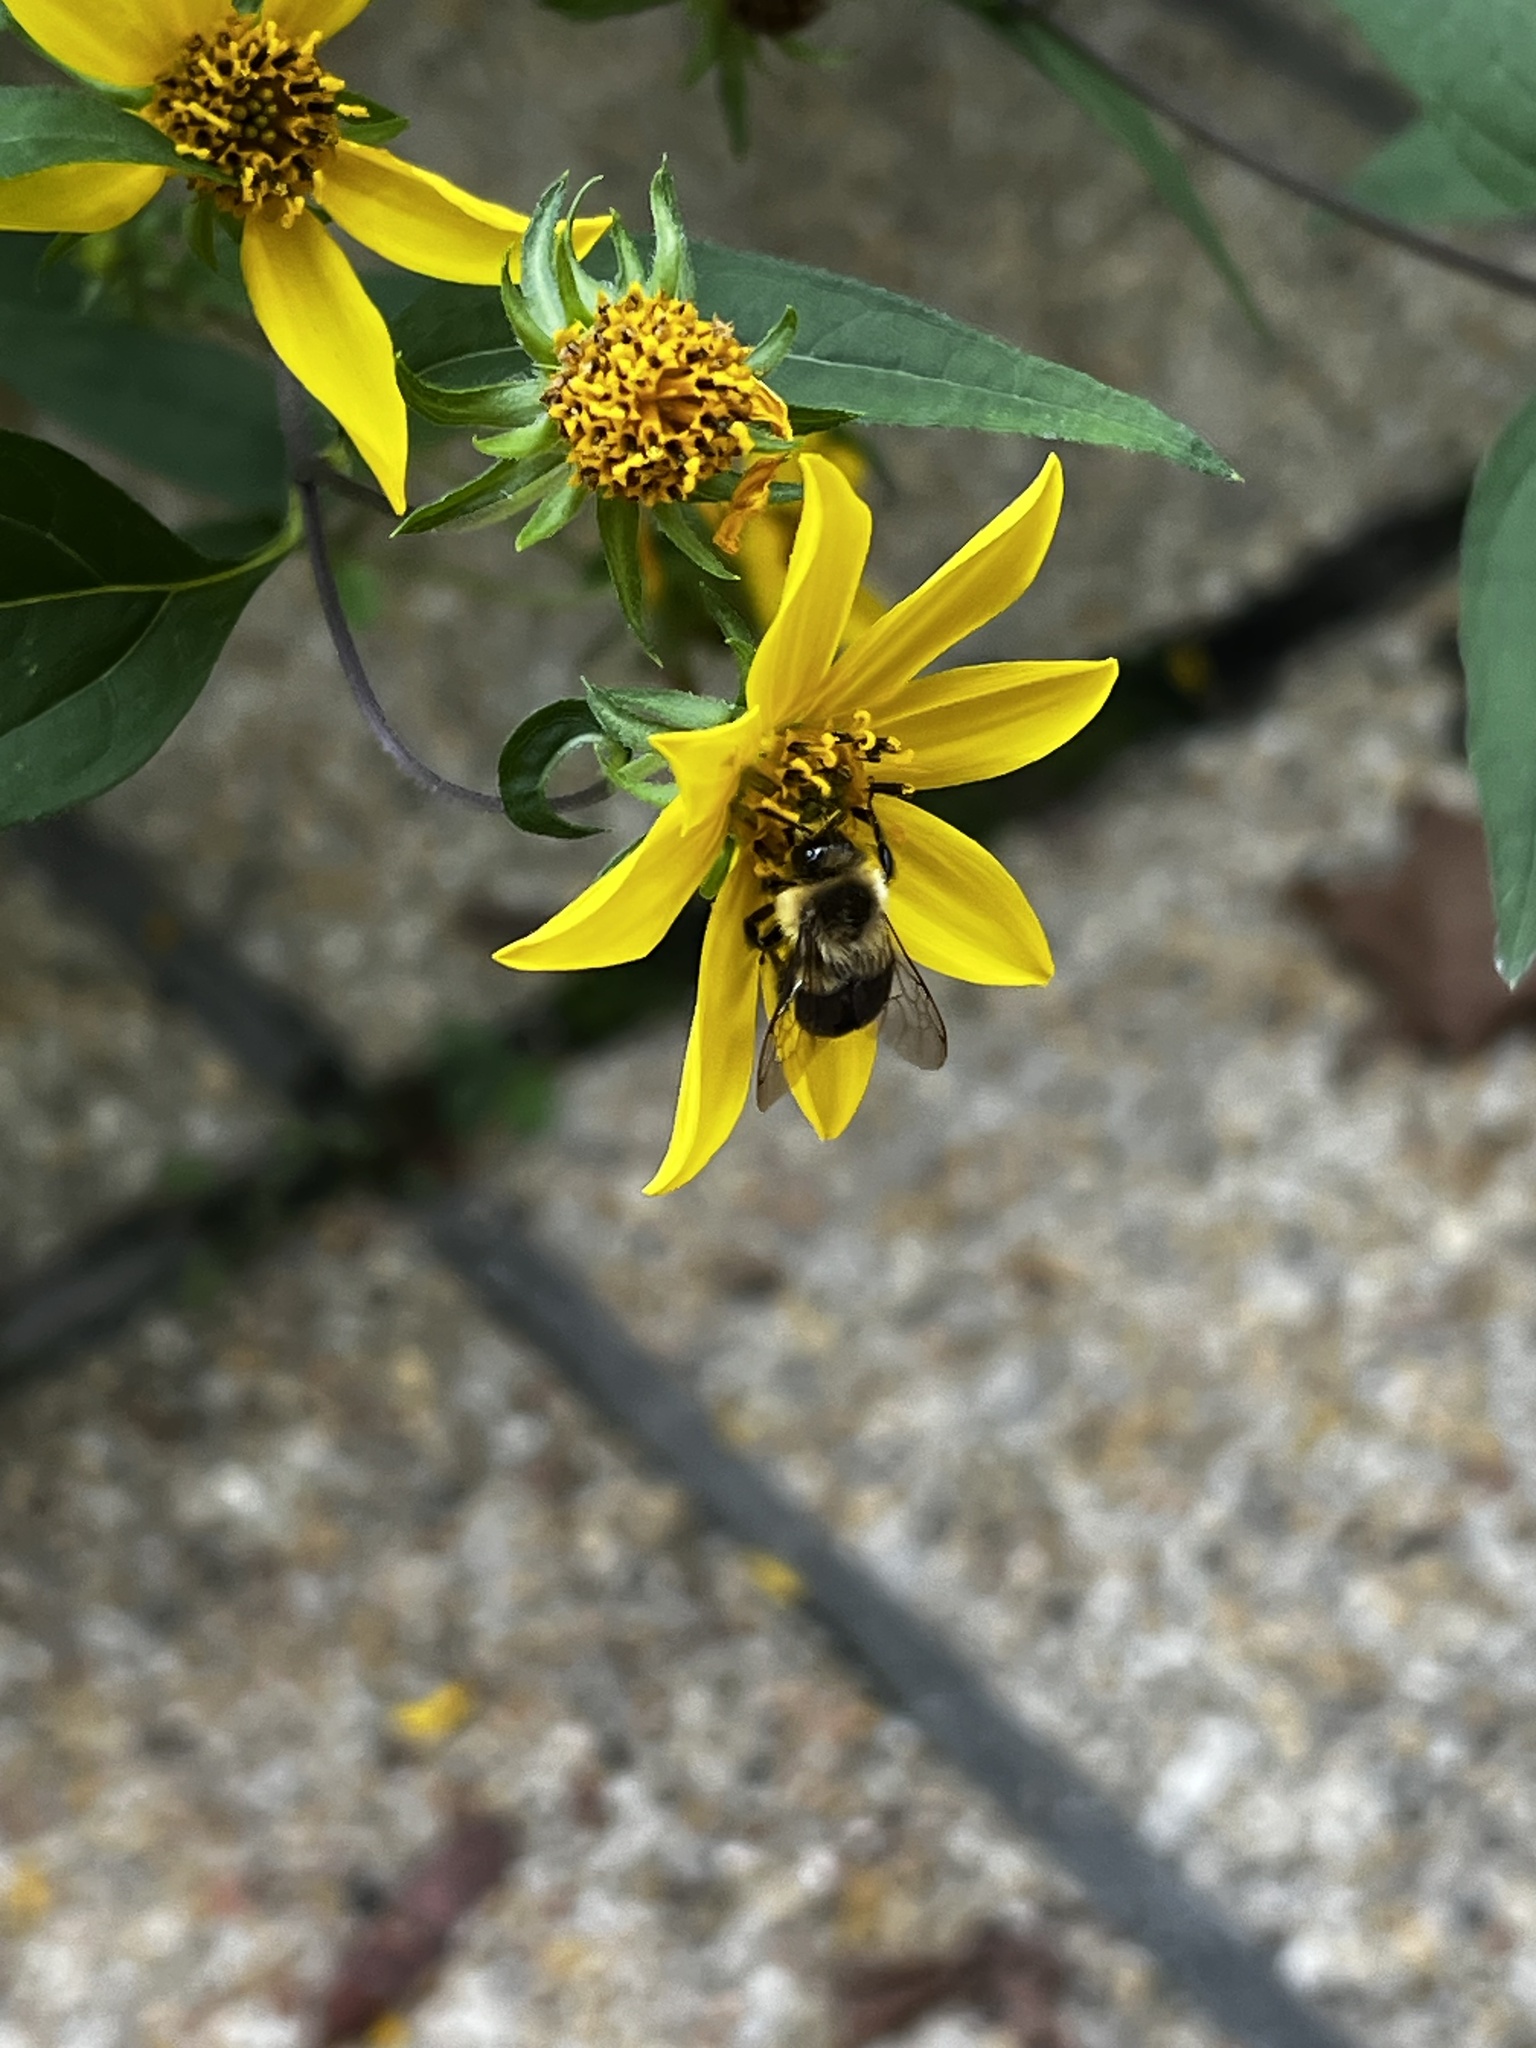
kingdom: Animalia
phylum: Arthropoda
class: Insecta
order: Hymenoptera
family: Apidae
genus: Bombus
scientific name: Bombus impatiens
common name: Common eastern bumble bee
